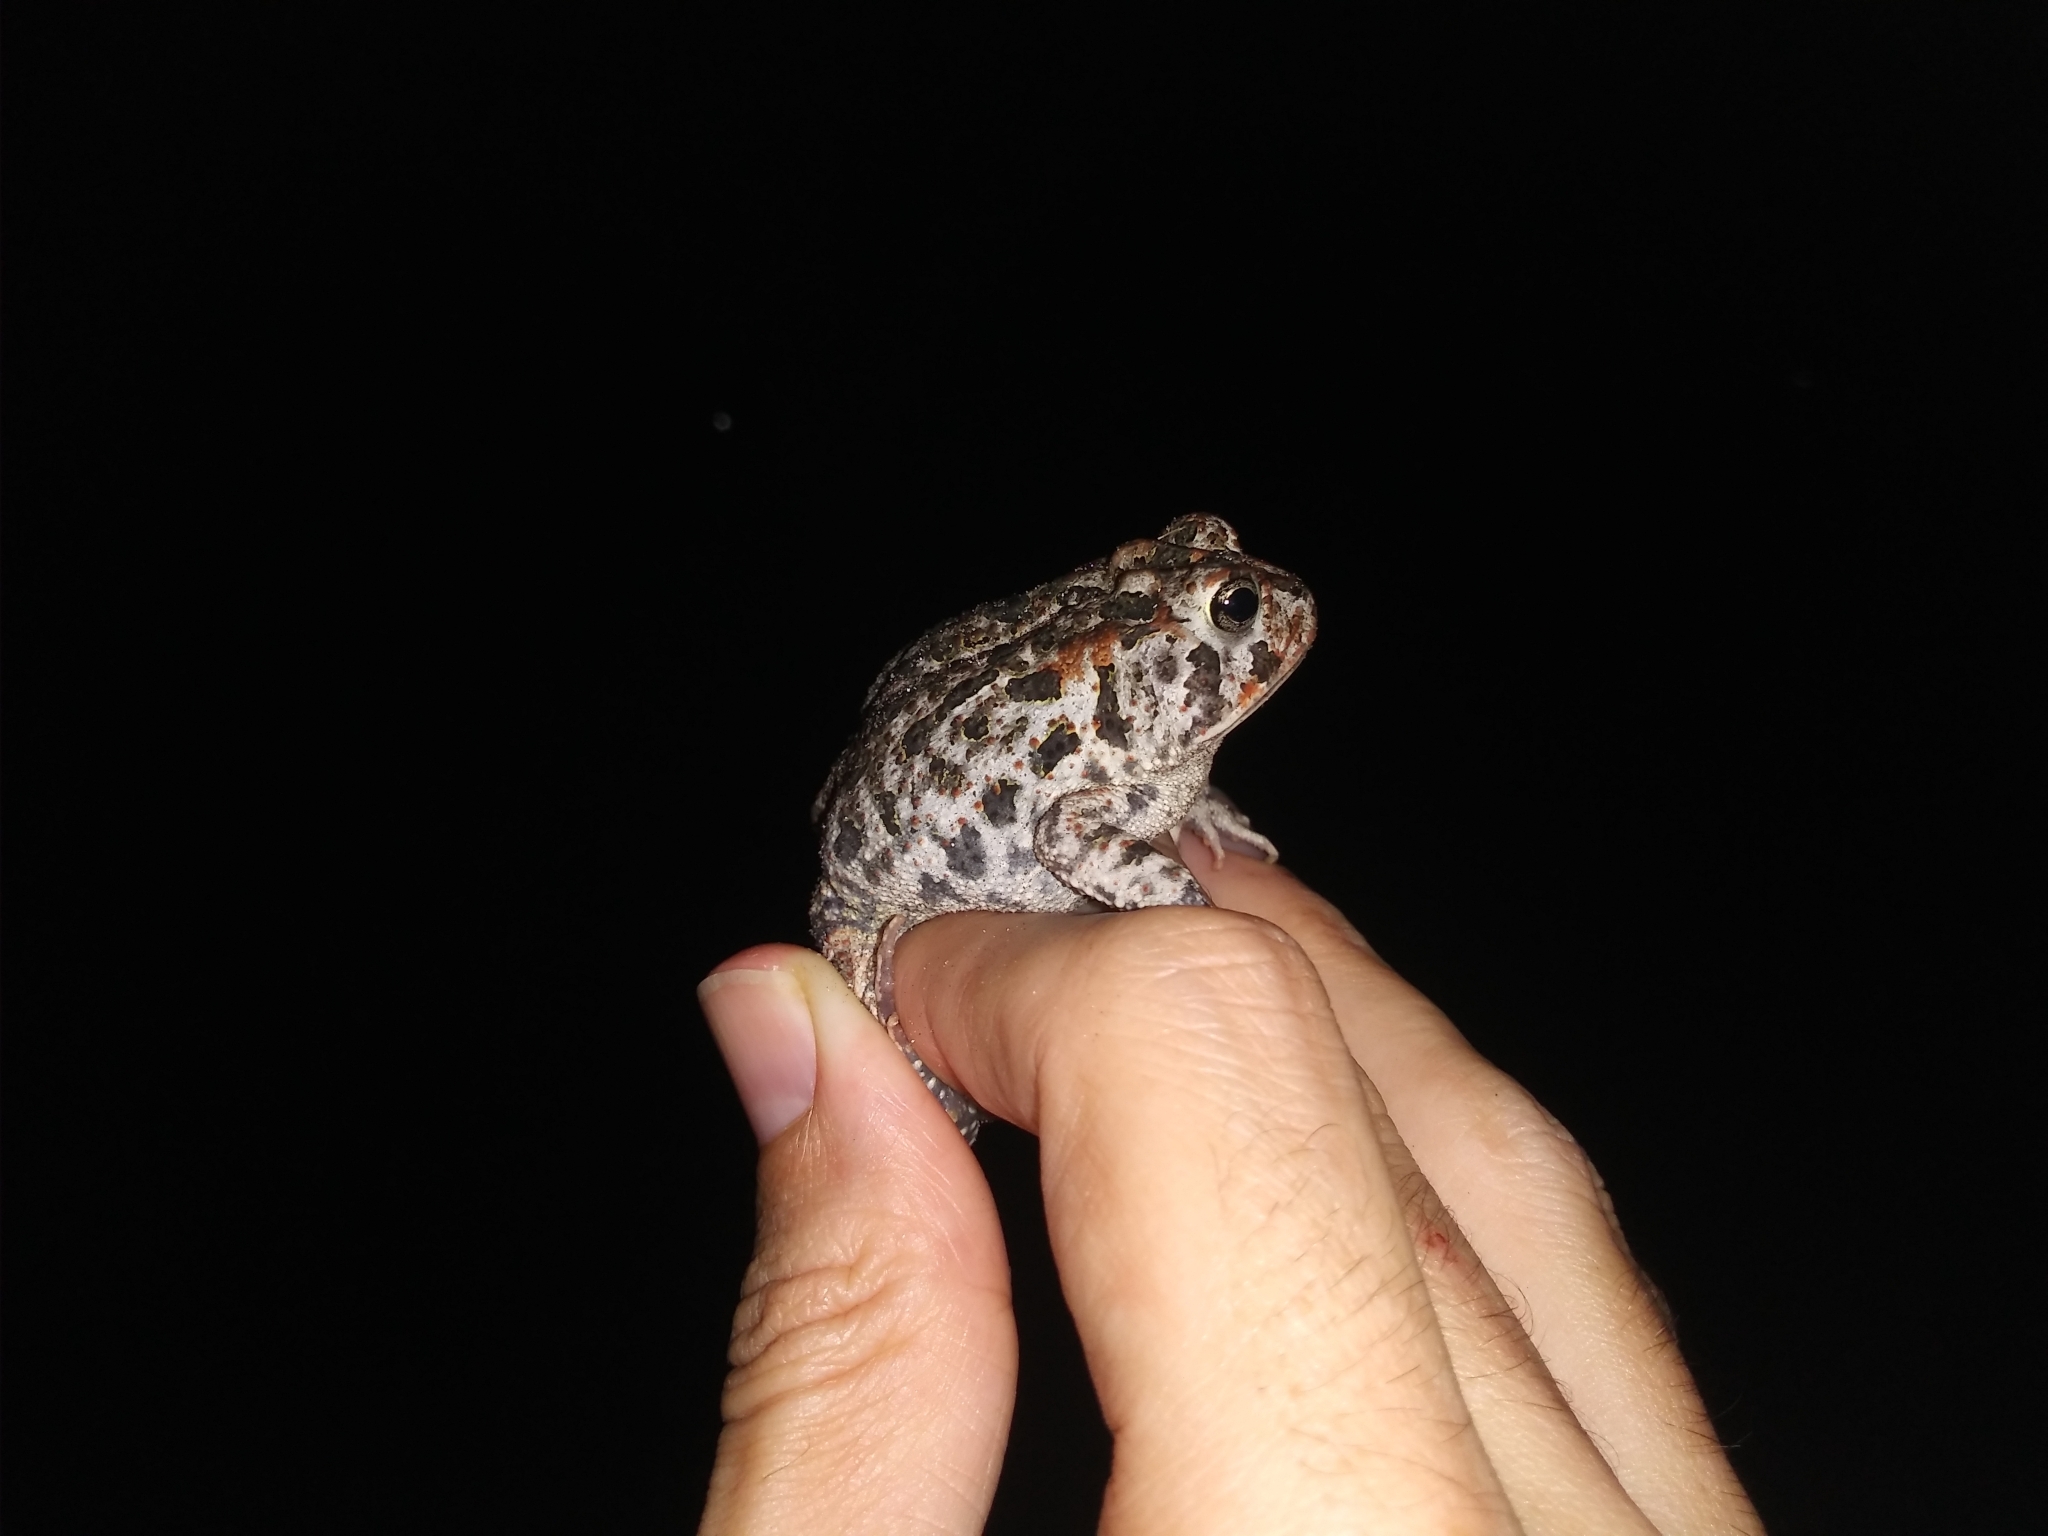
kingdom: Animalia
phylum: Chordata
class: Amphibia
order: Anura
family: Bufonidae
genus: Anaxyrus
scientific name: Anaxyrus terrestris
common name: Southern toad
